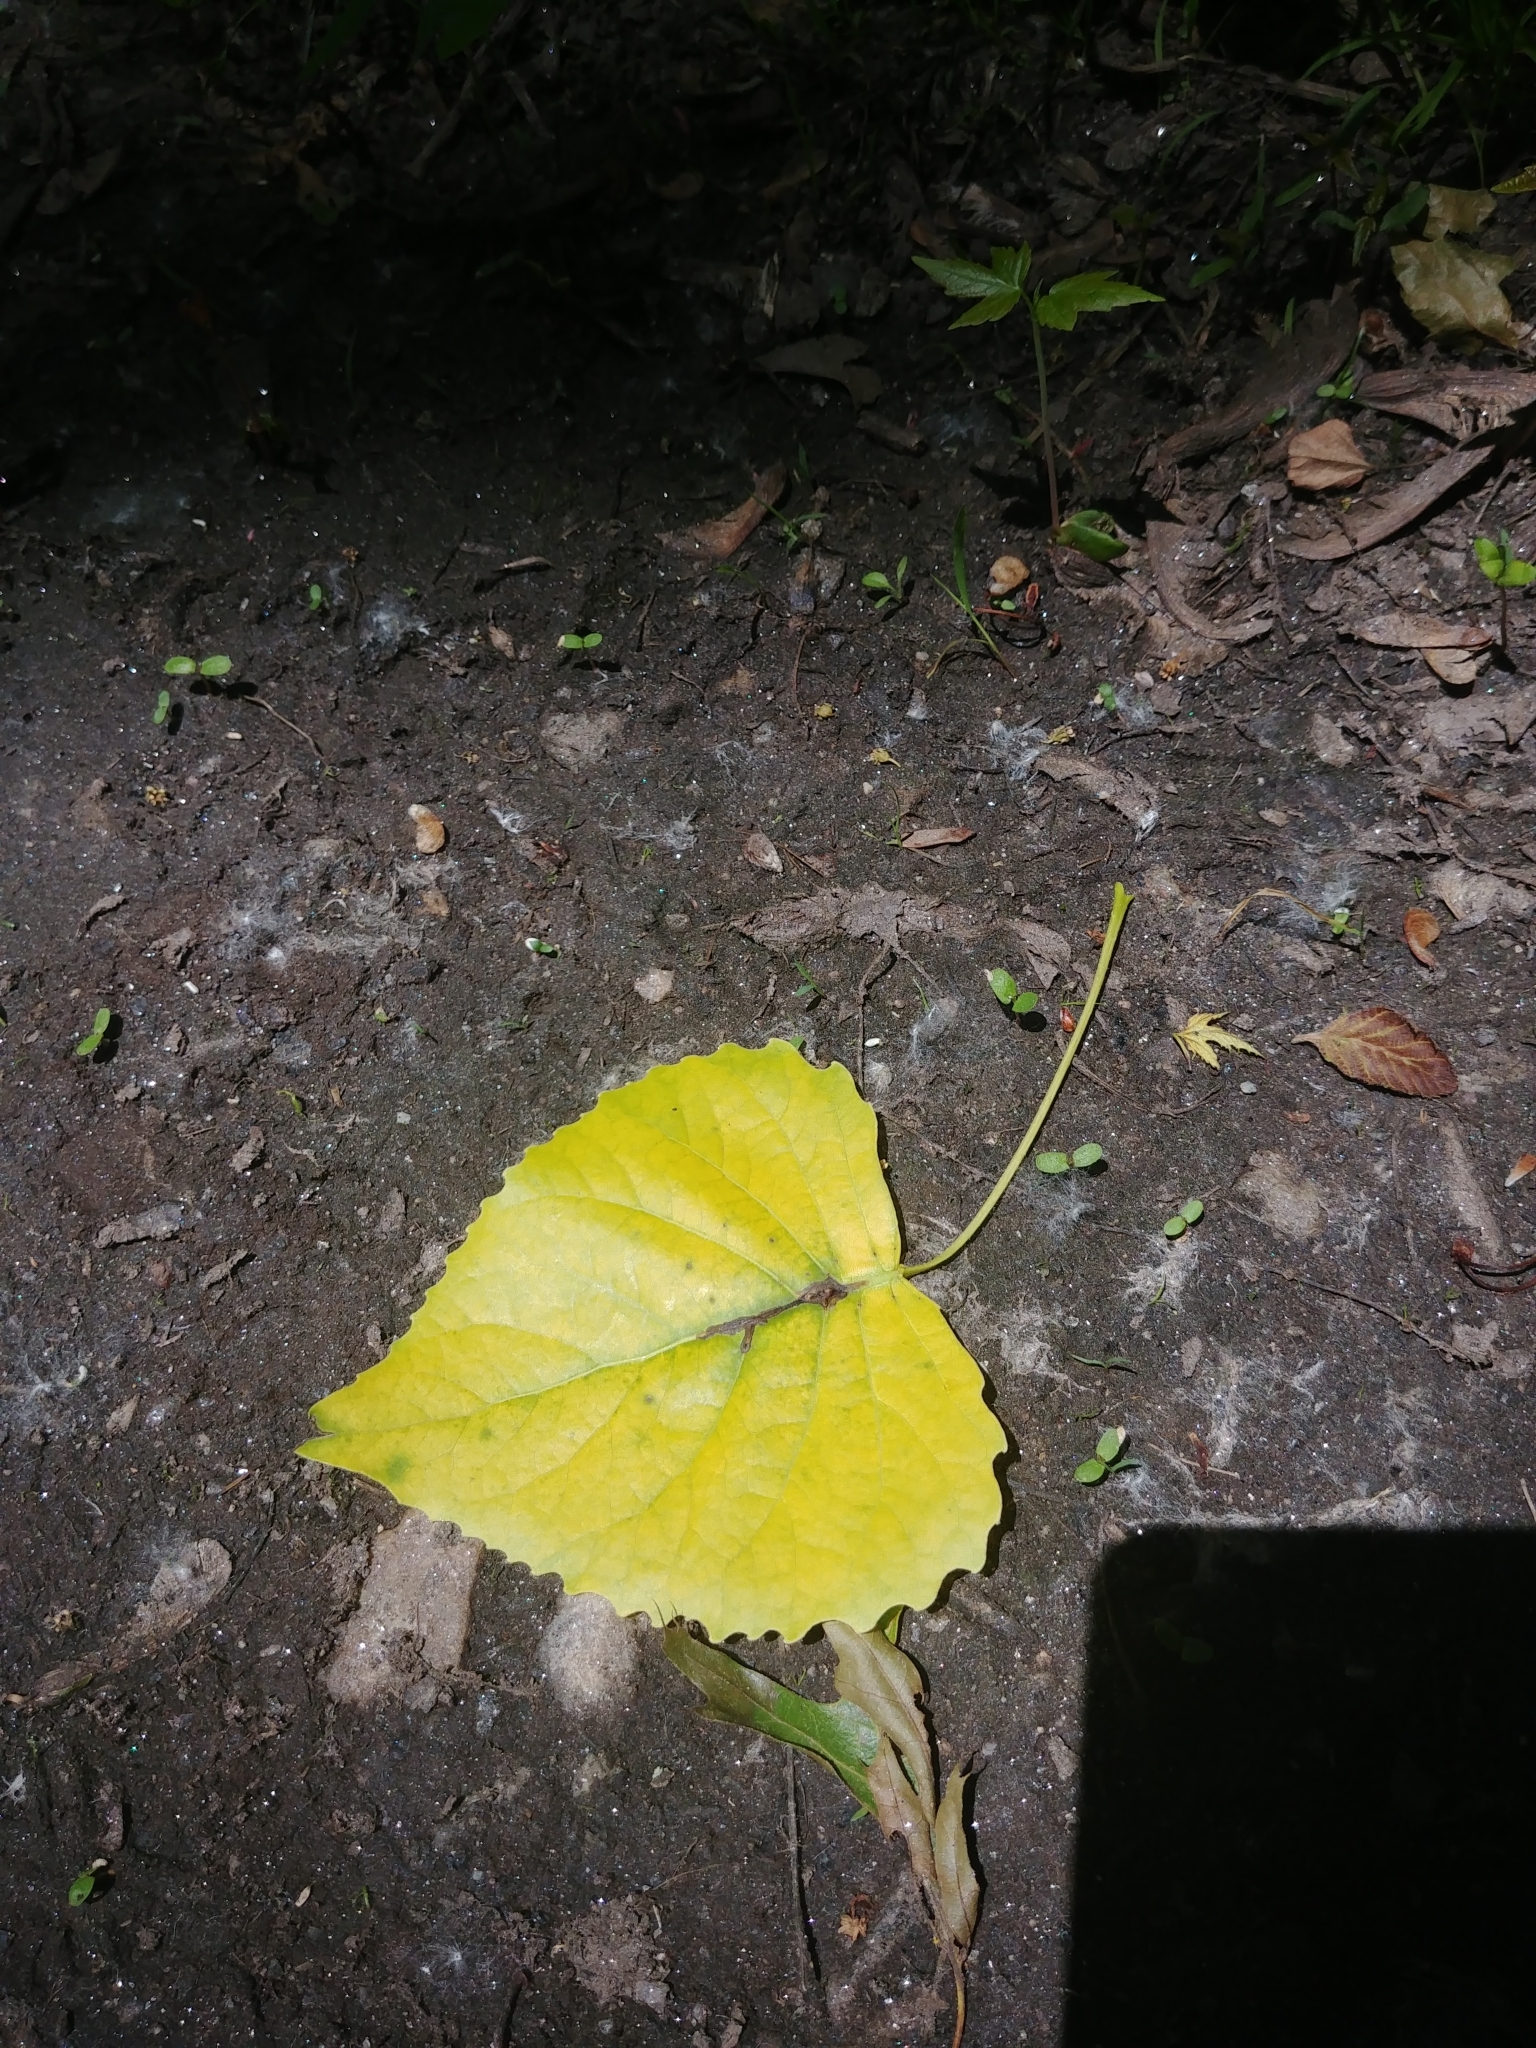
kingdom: Plantae
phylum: Tracheophyta
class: Magnoliopsida
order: Malpighiales
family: Salicaceae
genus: Populus
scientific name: Populus deltoides
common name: Eastern cottonwood
